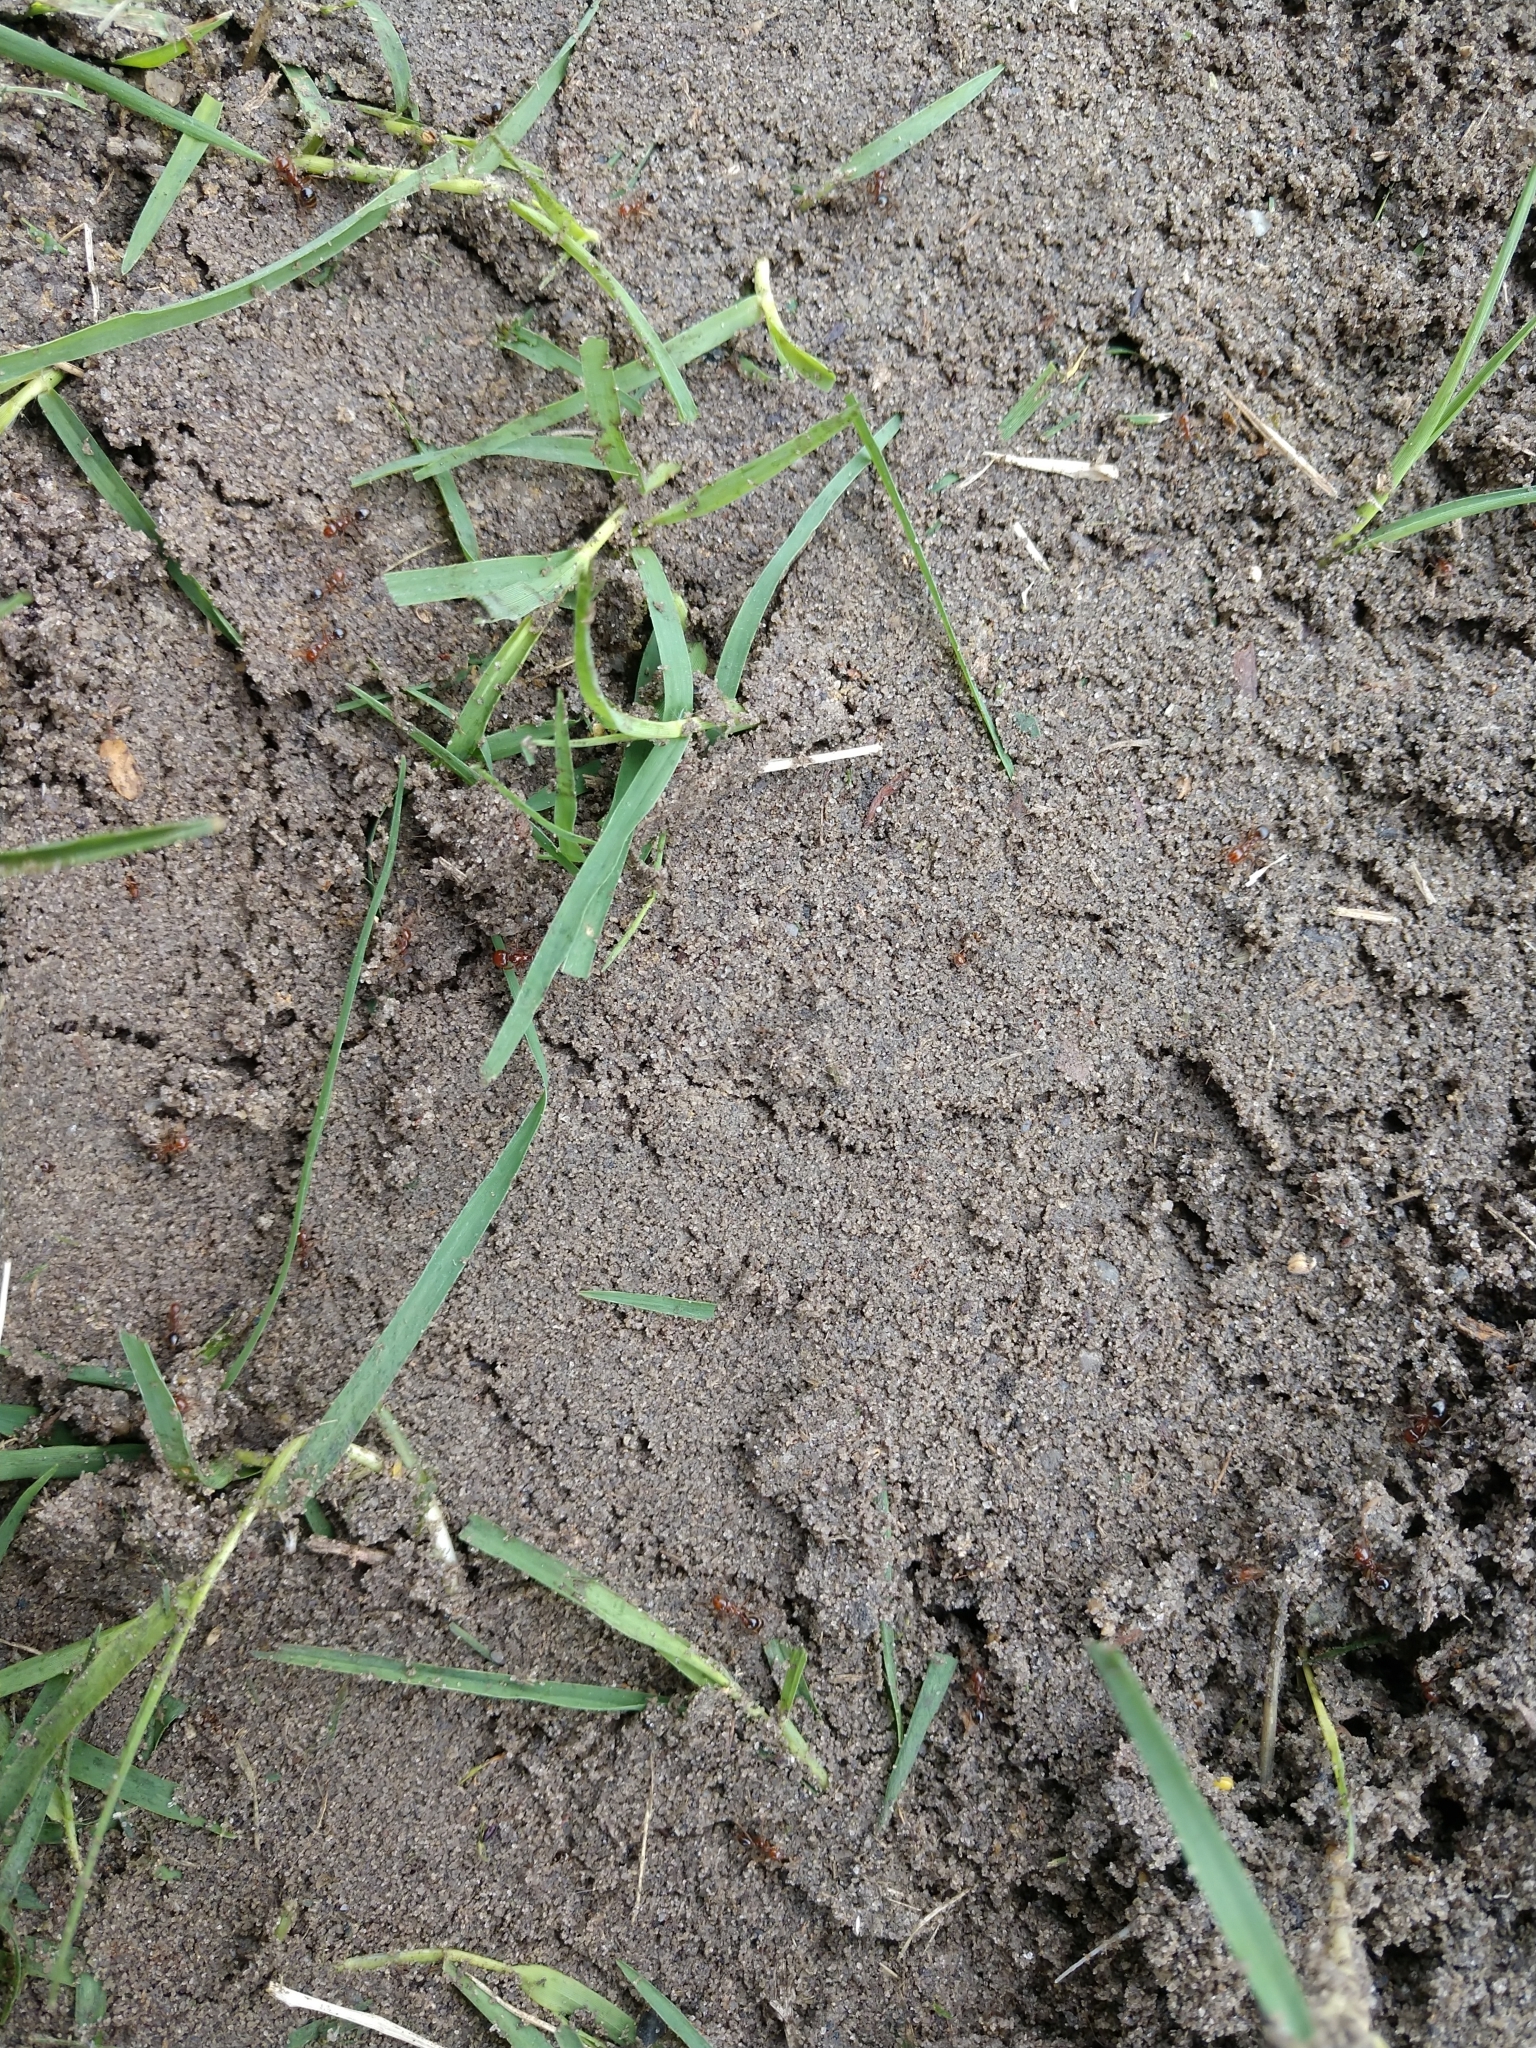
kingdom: Animalia
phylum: Arthropoda
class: Insecta
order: Hymenoptera
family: Formicidae
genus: Solenopsis
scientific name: Solenopsis invicta
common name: Red imported fire ant
